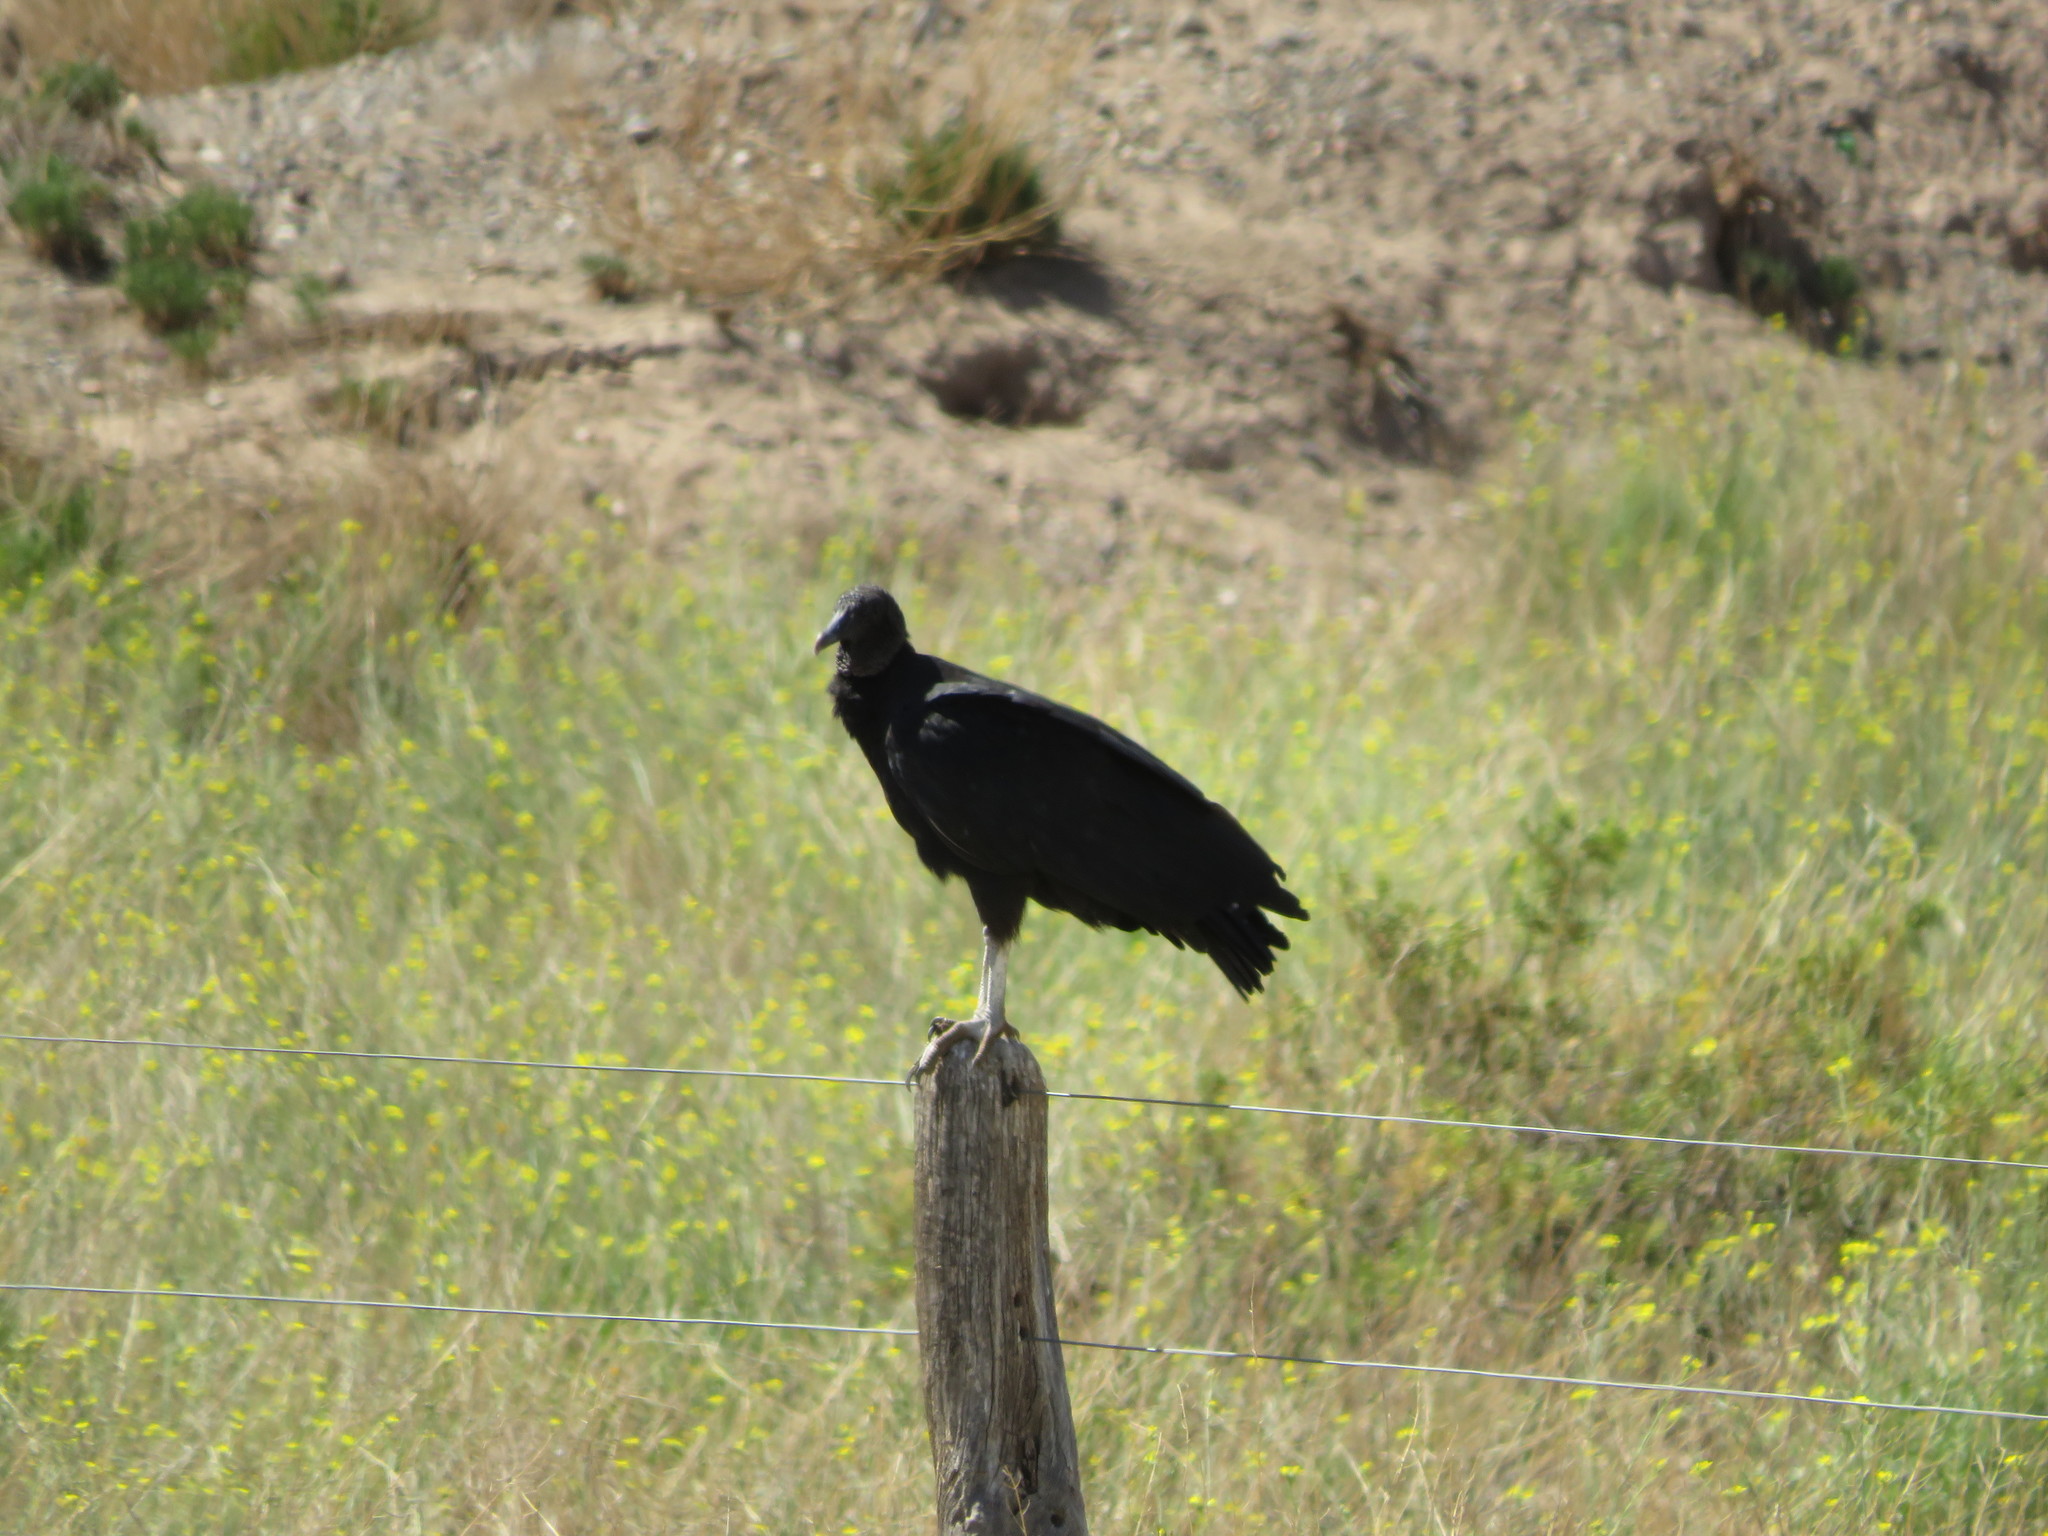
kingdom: Animalia
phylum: Chordata
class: Aves
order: Accipitriformes
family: Cathartidae
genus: Coragyps
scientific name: Coragyps atratus
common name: Black vulture
